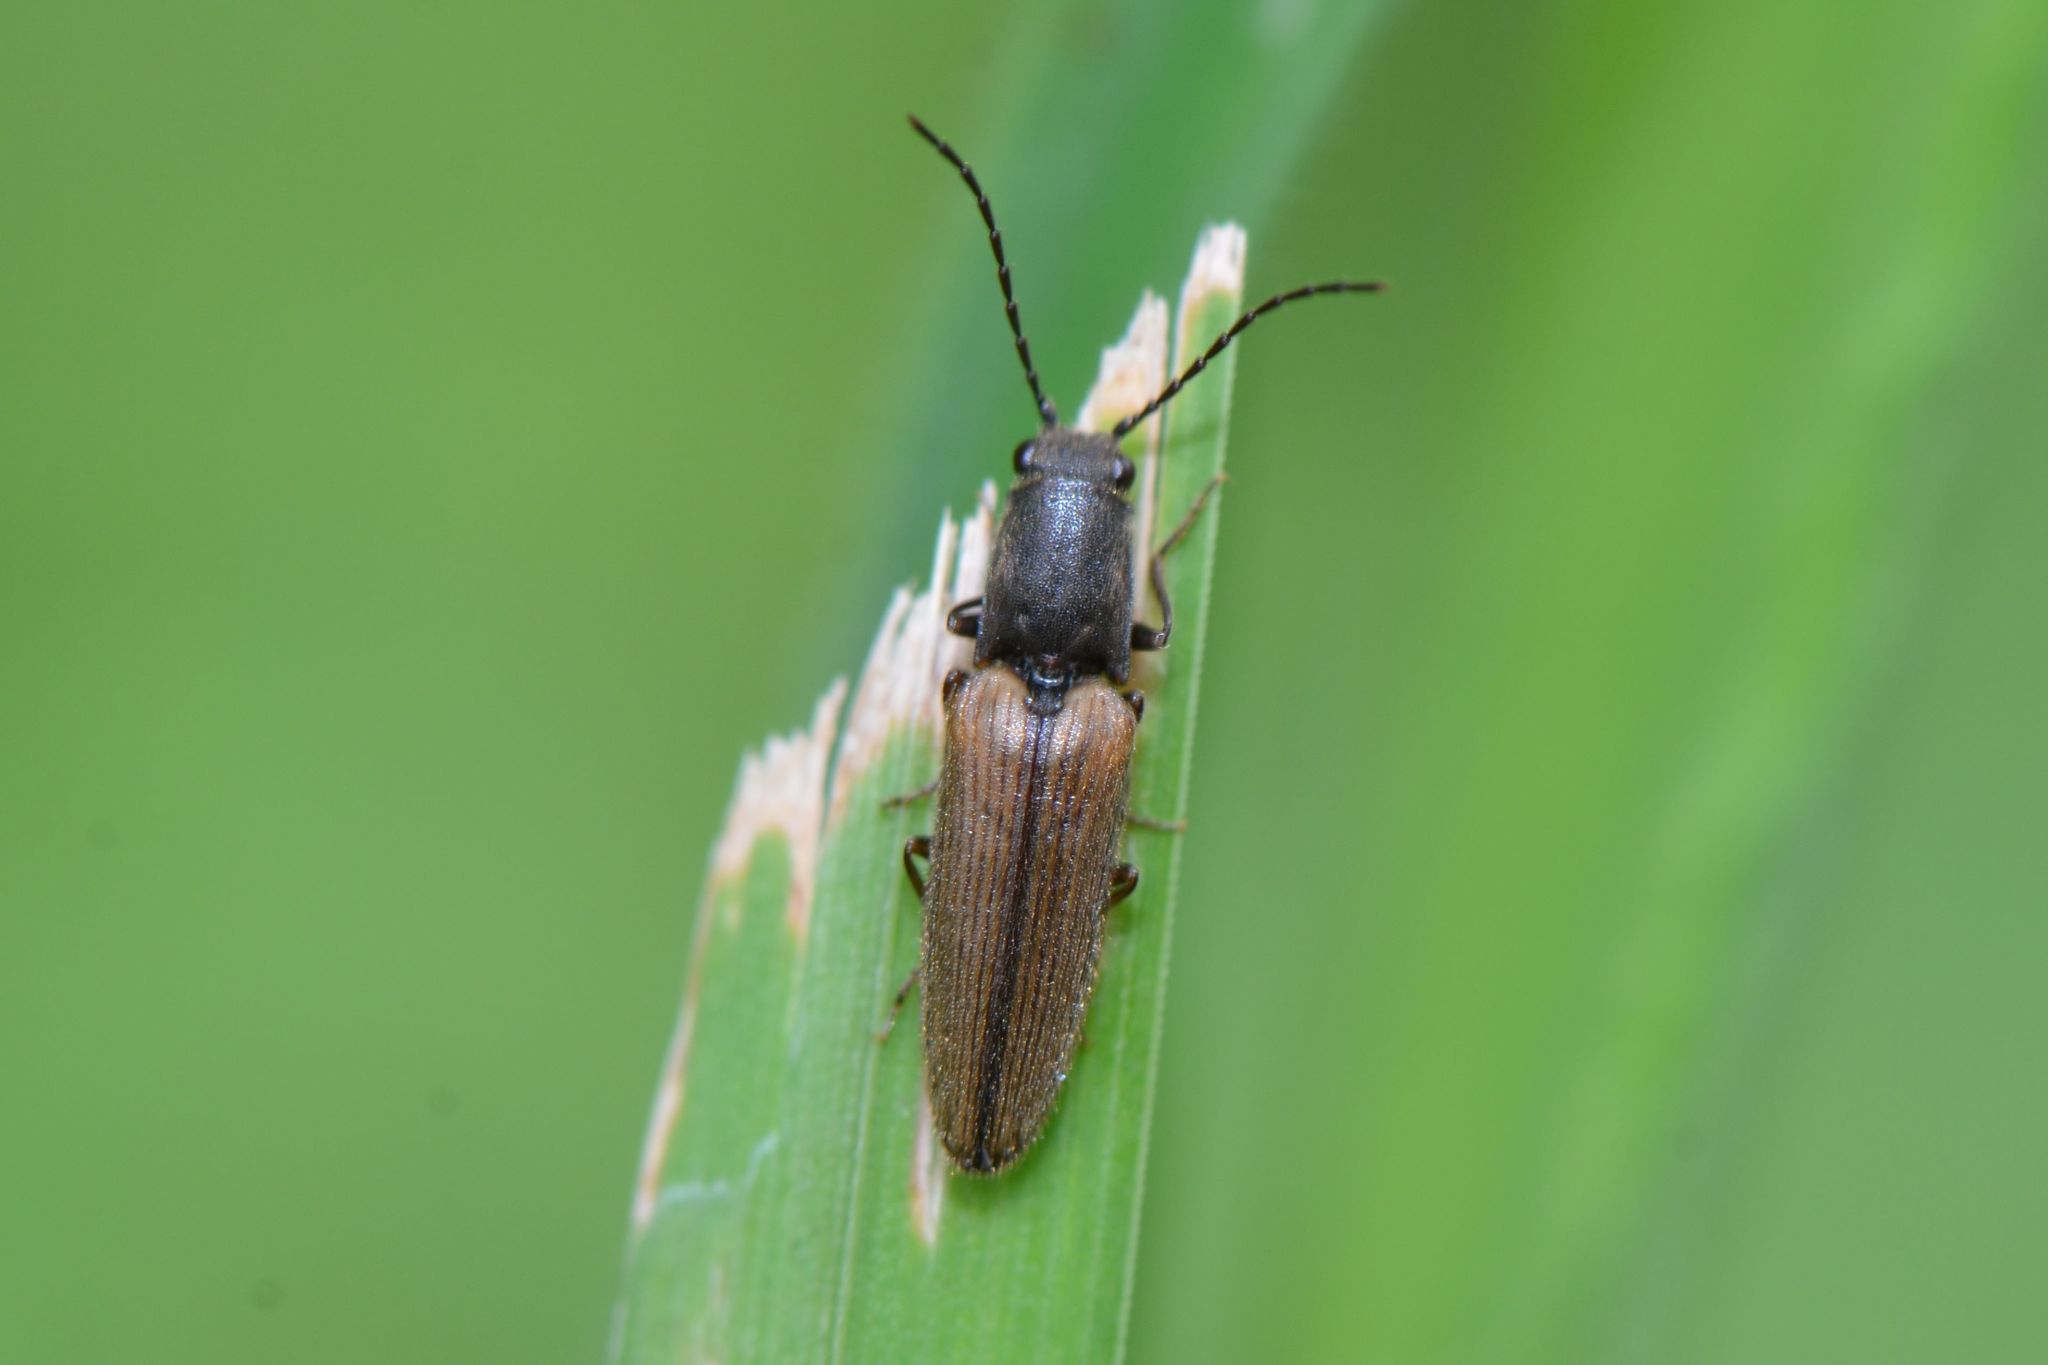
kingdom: Animalia
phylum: Arthropoda
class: Insecta
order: Coleoptera
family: Elateridae
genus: Athous
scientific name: Athous bicolor
